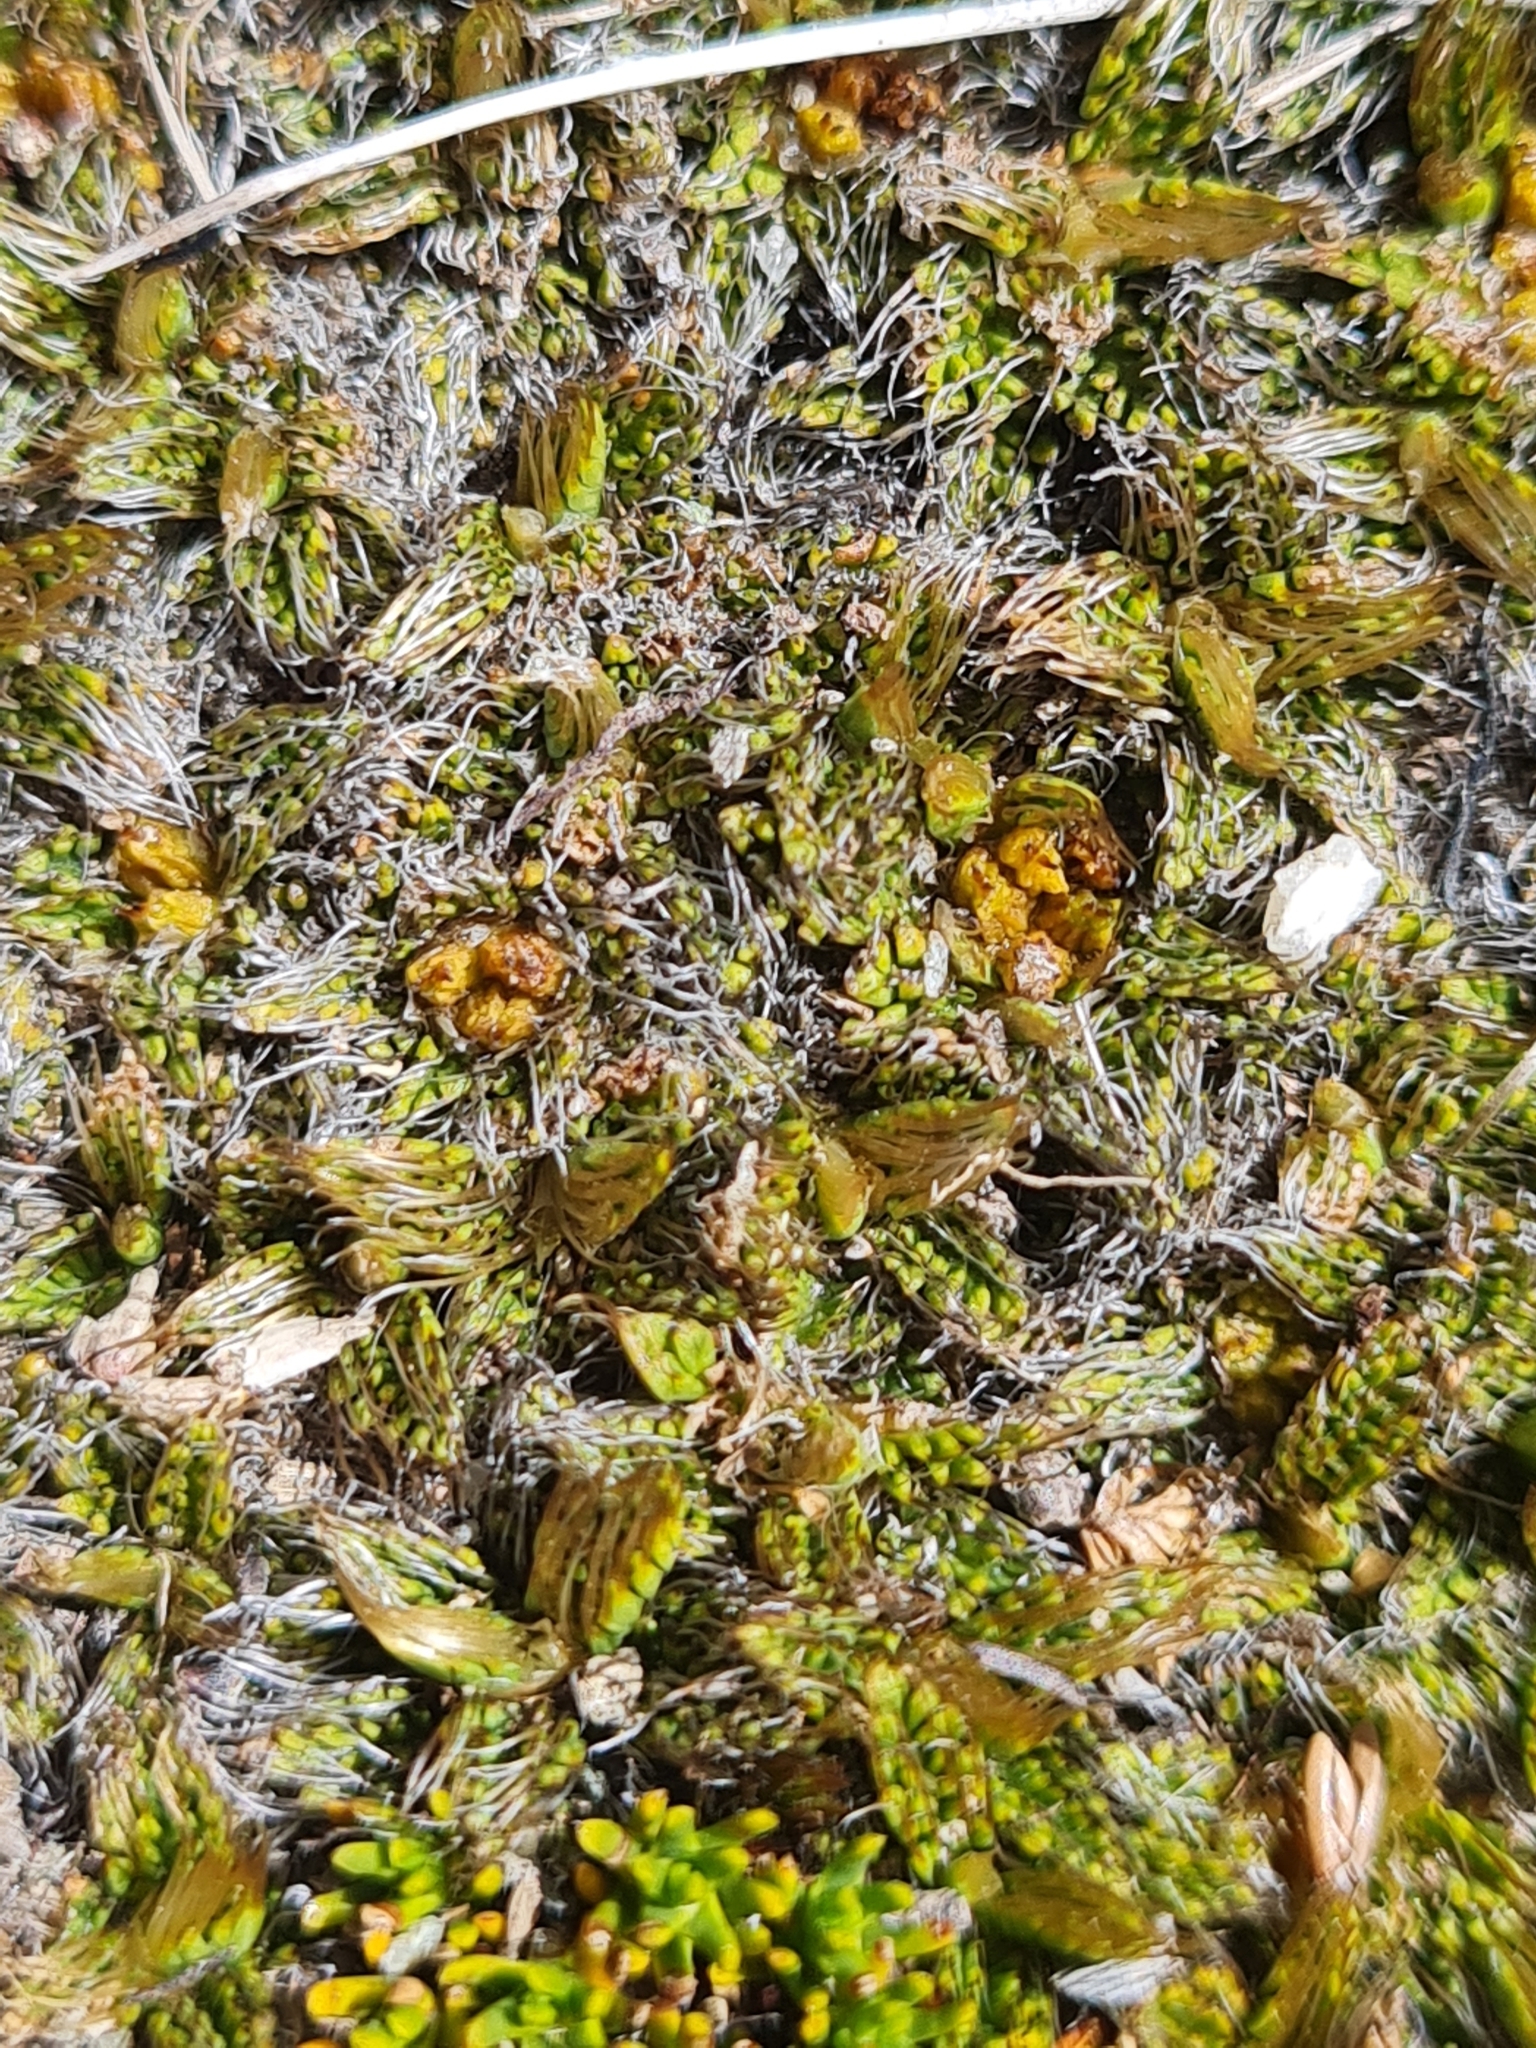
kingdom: Plantae
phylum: Tracheophyta
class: Magnoliopsida
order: Apiales
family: Apiaceae
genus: Anisotome
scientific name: Anisotome imbricata
